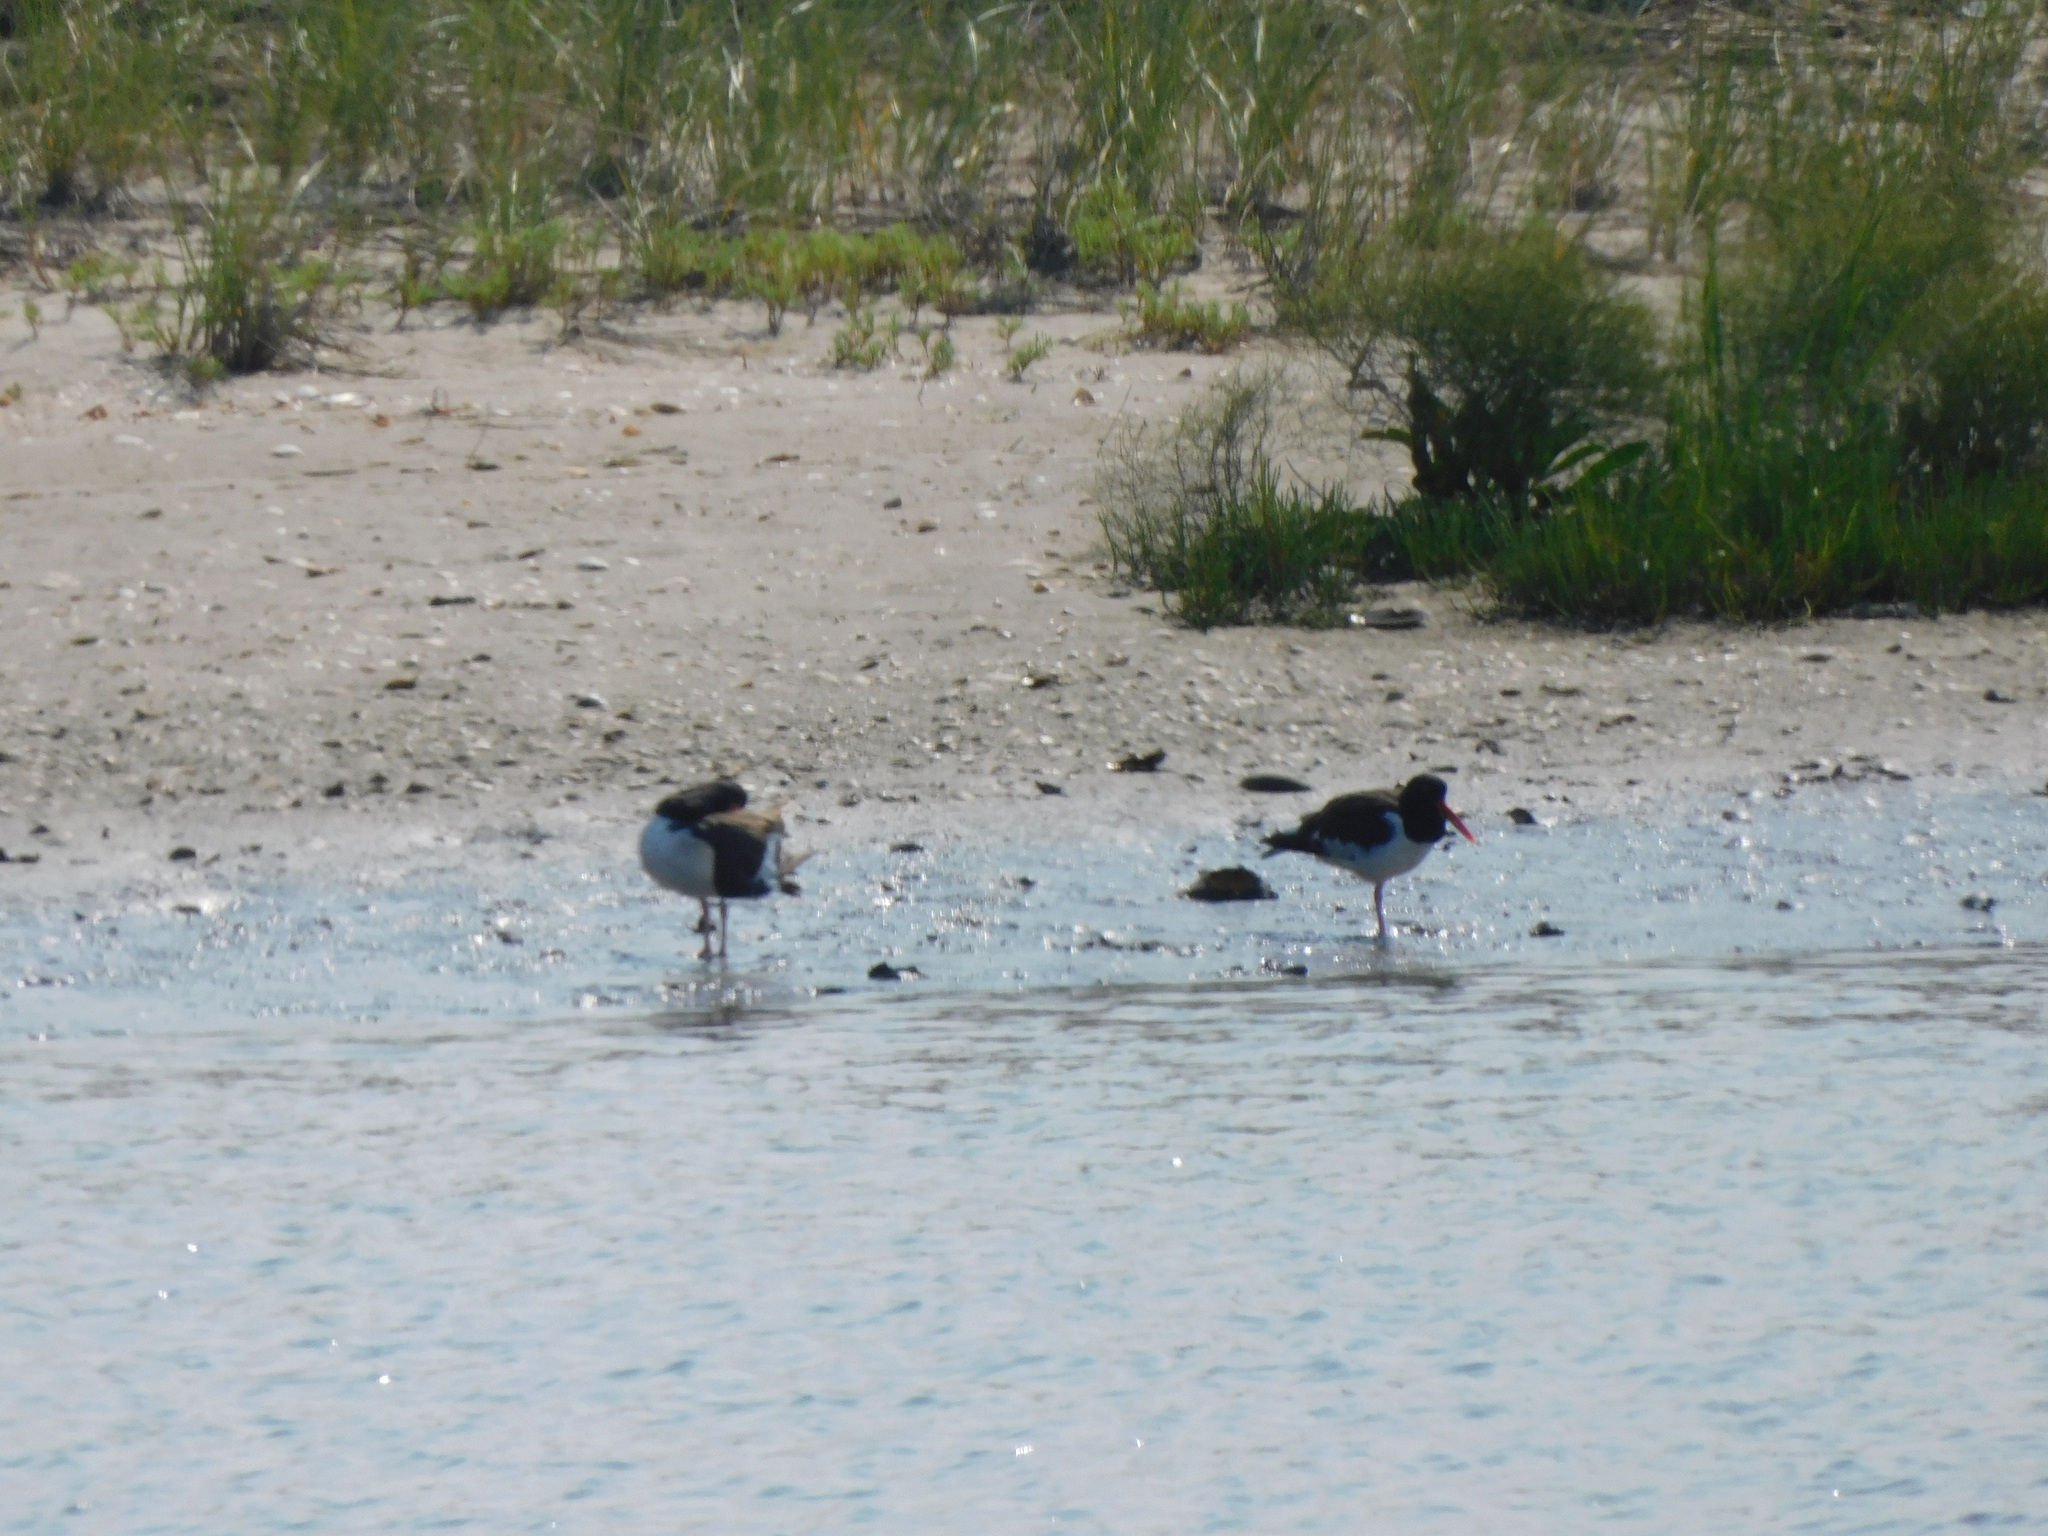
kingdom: Animalia
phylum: Chordata
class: Aves
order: Charadriiformes
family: Haematopodidae
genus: Haematopus
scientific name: Haematopus palliatus
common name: American oystercatcher
